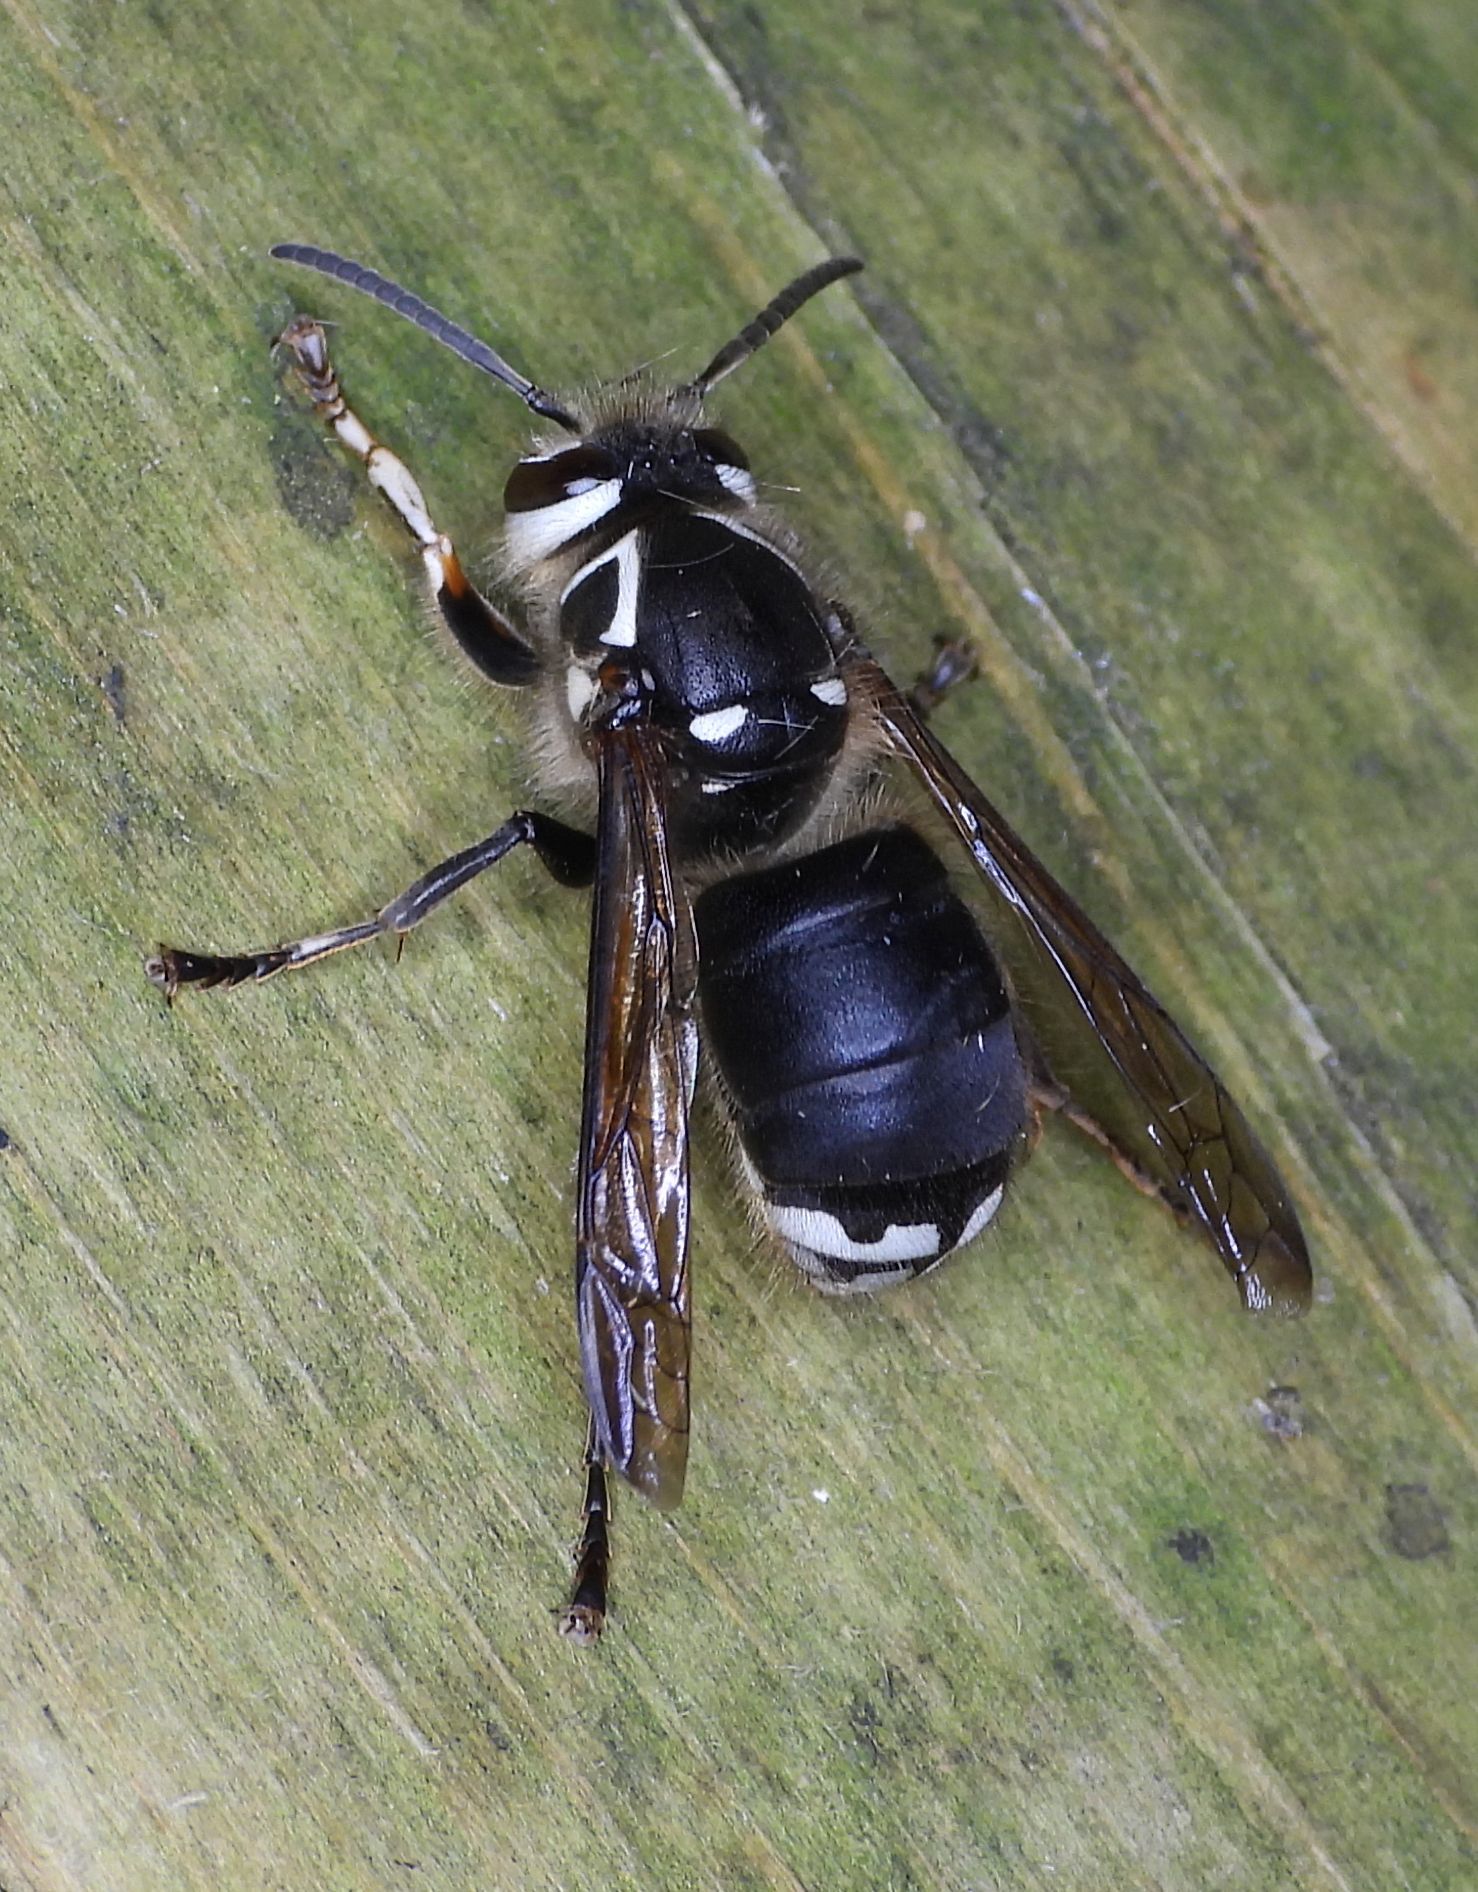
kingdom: Animalia
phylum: Arthropoda
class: Insecta
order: Hymenoptera
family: Vespidae
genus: Dolichovespula
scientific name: Dolichovespula maculata
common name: Bald-faced hornet
